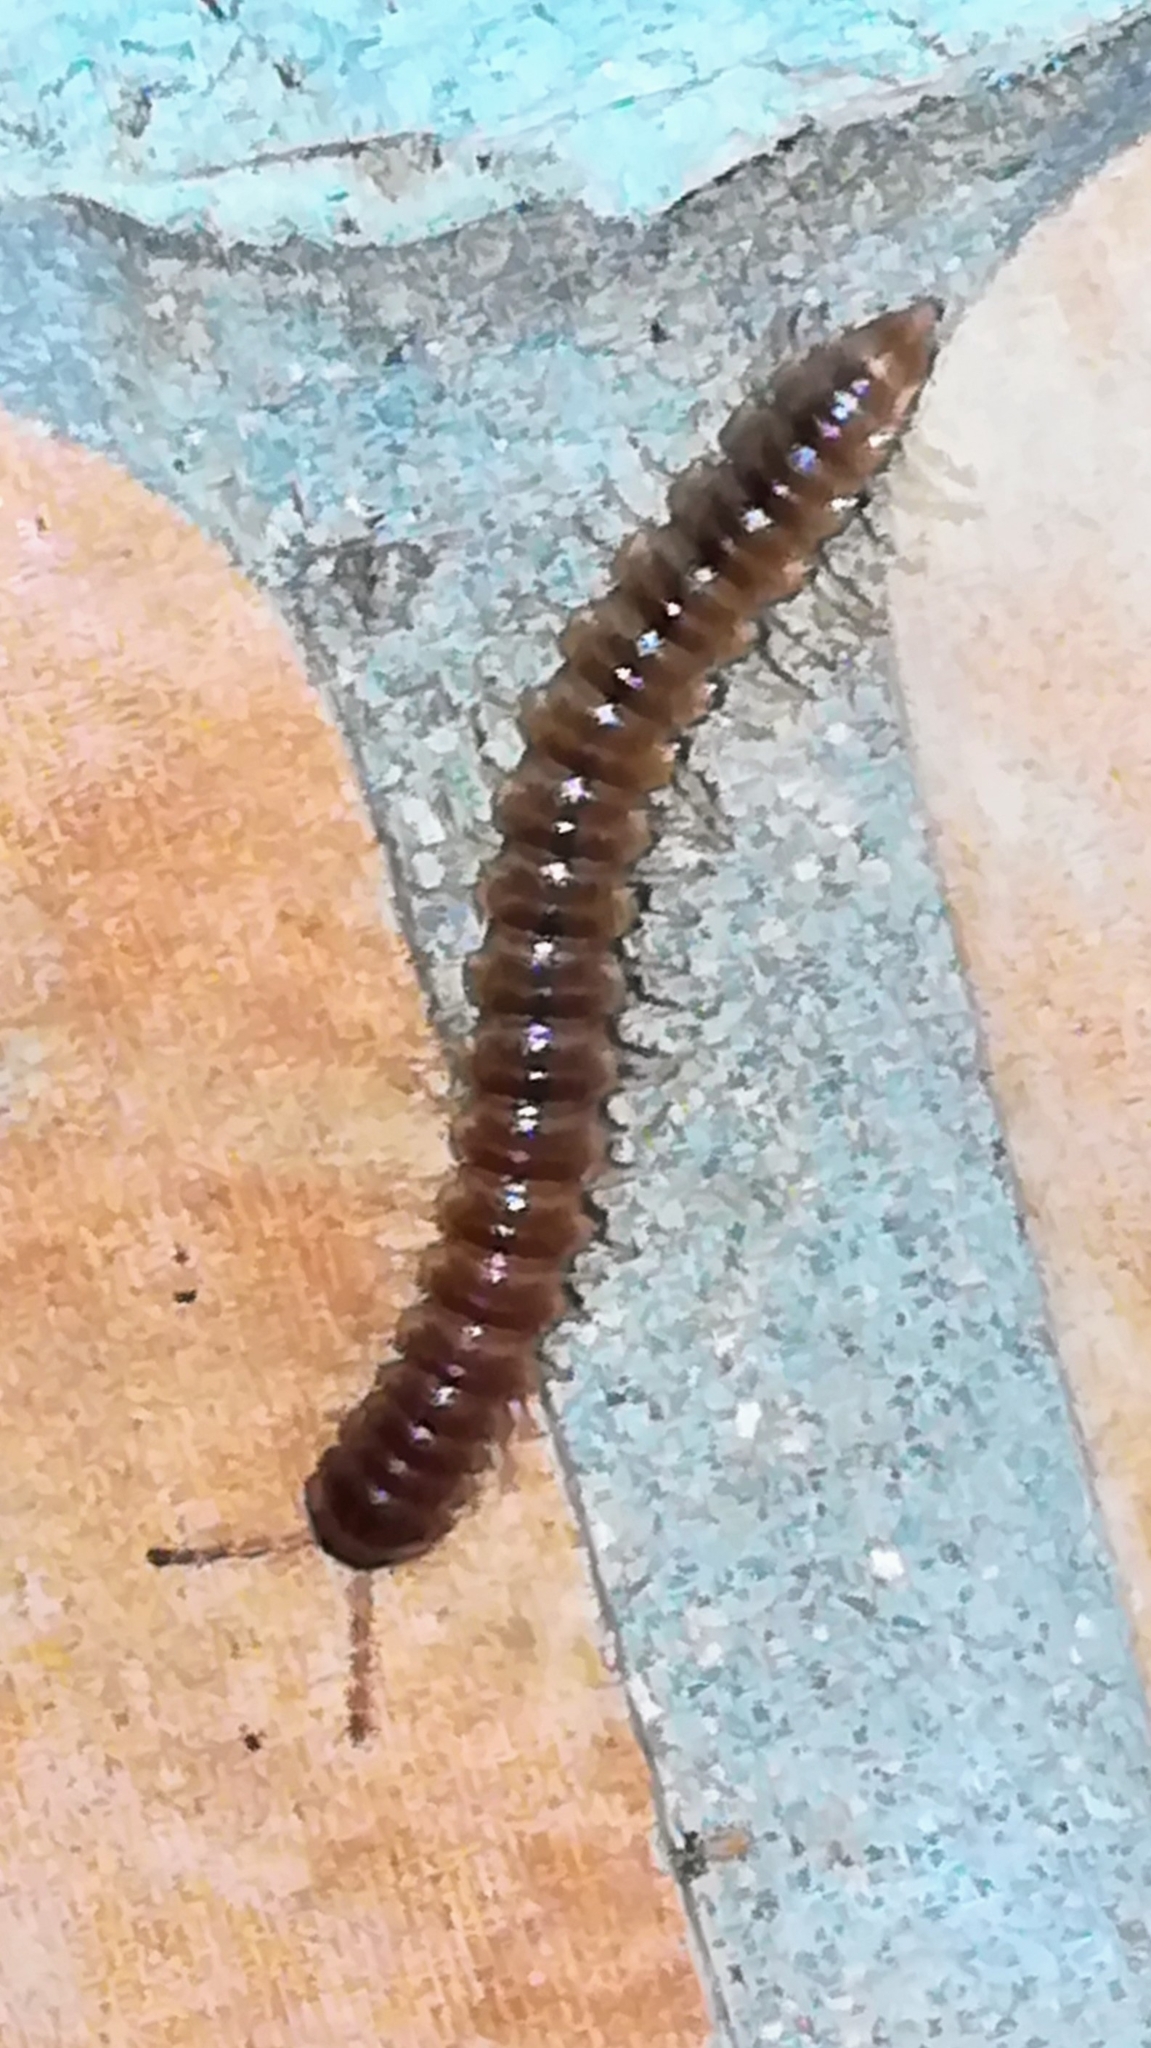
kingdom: Animalia
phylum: Arthropoda
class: Diplopoda
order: Polydesmida
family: Paradoxosomatidae
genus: Oxidus
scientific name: Oxidus gracilis
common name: Greenhouse millipede
